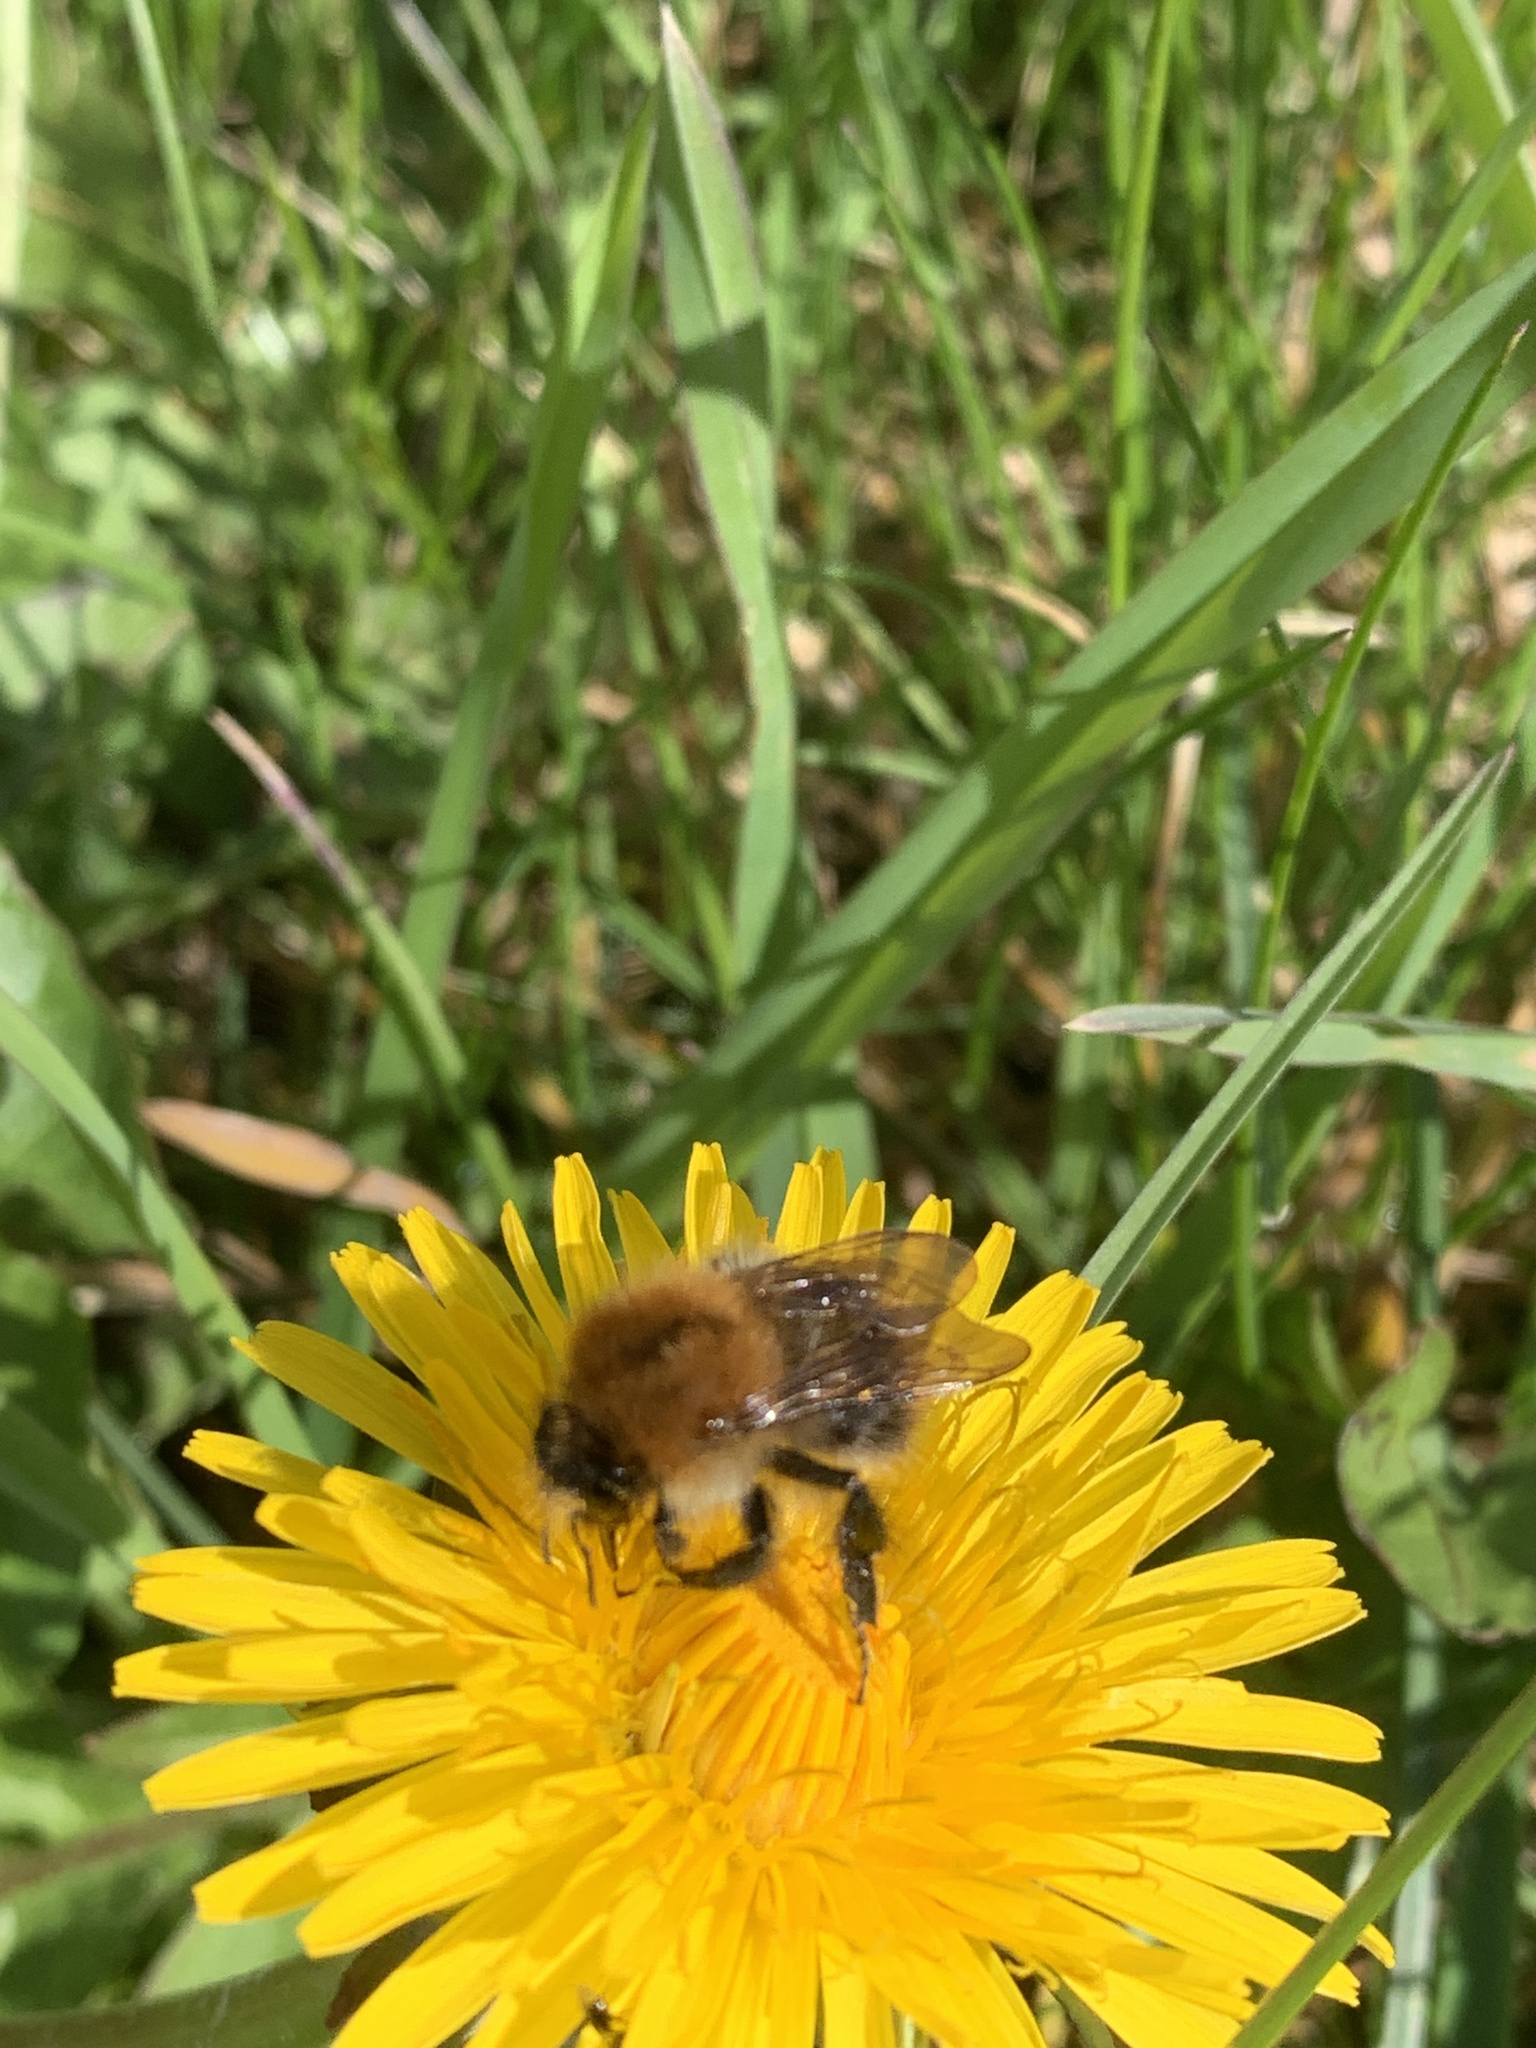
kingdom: Animalia
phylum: Arthropoda
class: Insecta
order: Hymenoptera
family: Apidae
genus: Bombus
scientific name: Bombus pascuorum
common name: Common carder bee
